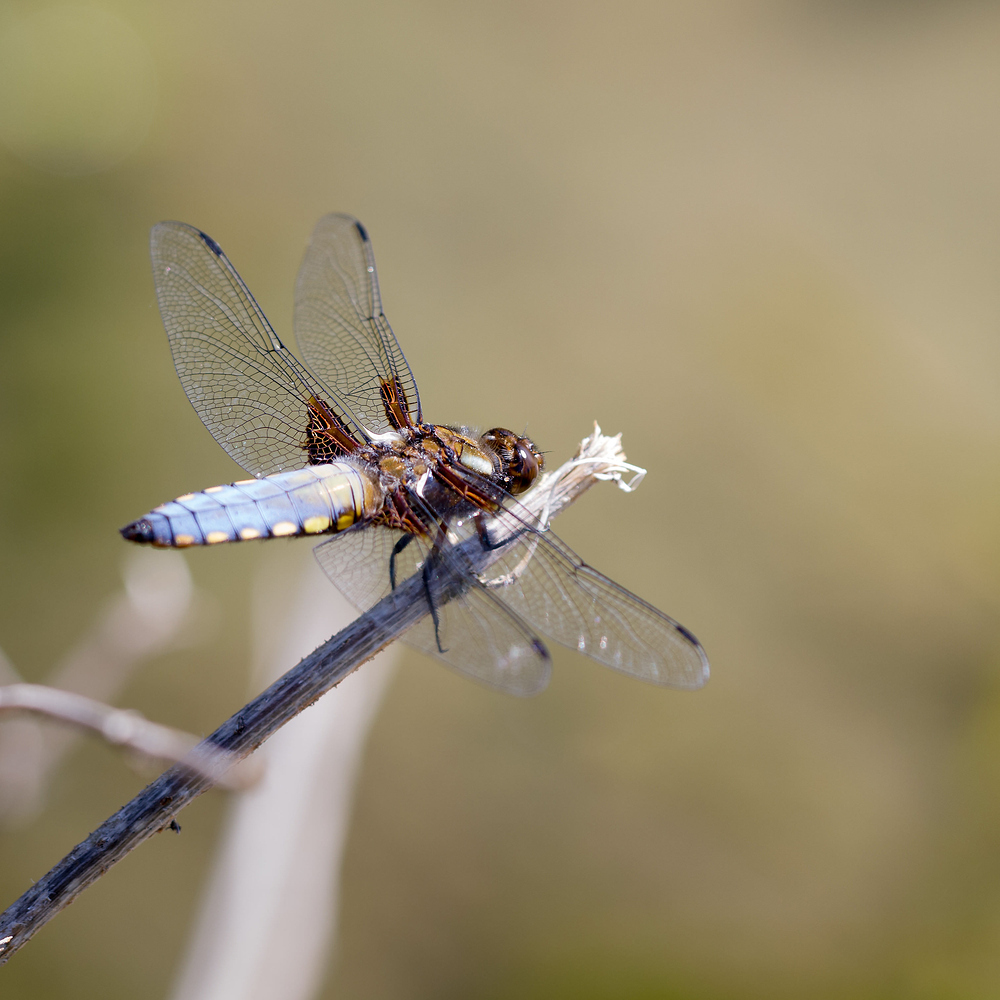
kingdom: Animalia
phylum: Arthropoda
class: Insecta
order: Odonata
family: Libellulidae
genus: Libellula
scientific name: Libellula depressa
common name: Broad-bodied chaser
